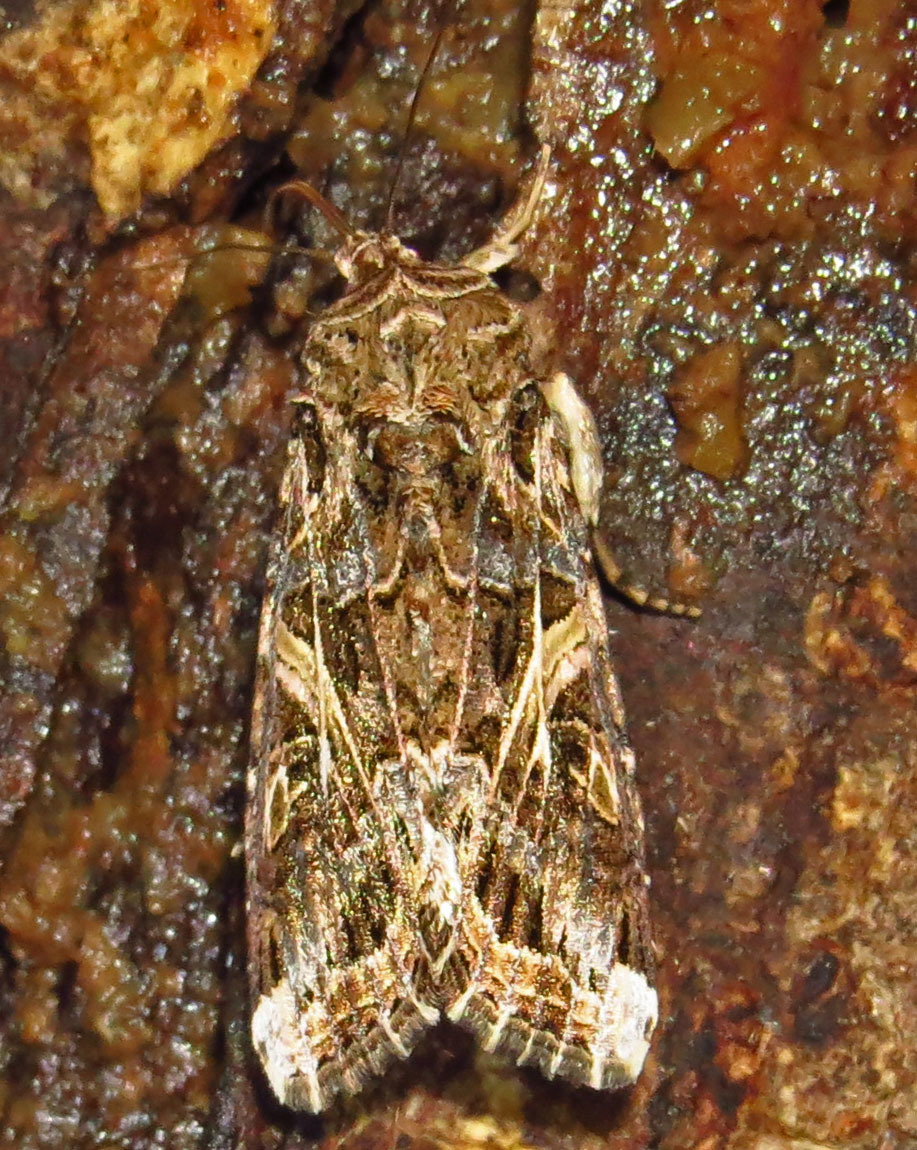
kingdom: Animalia
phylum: Arthropoda
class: Insecta
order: Lepidoptera
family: Noctuidae
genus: Spodoptera
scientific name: Spodoptera ornithogalli
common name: Yellow-striped armyworm
